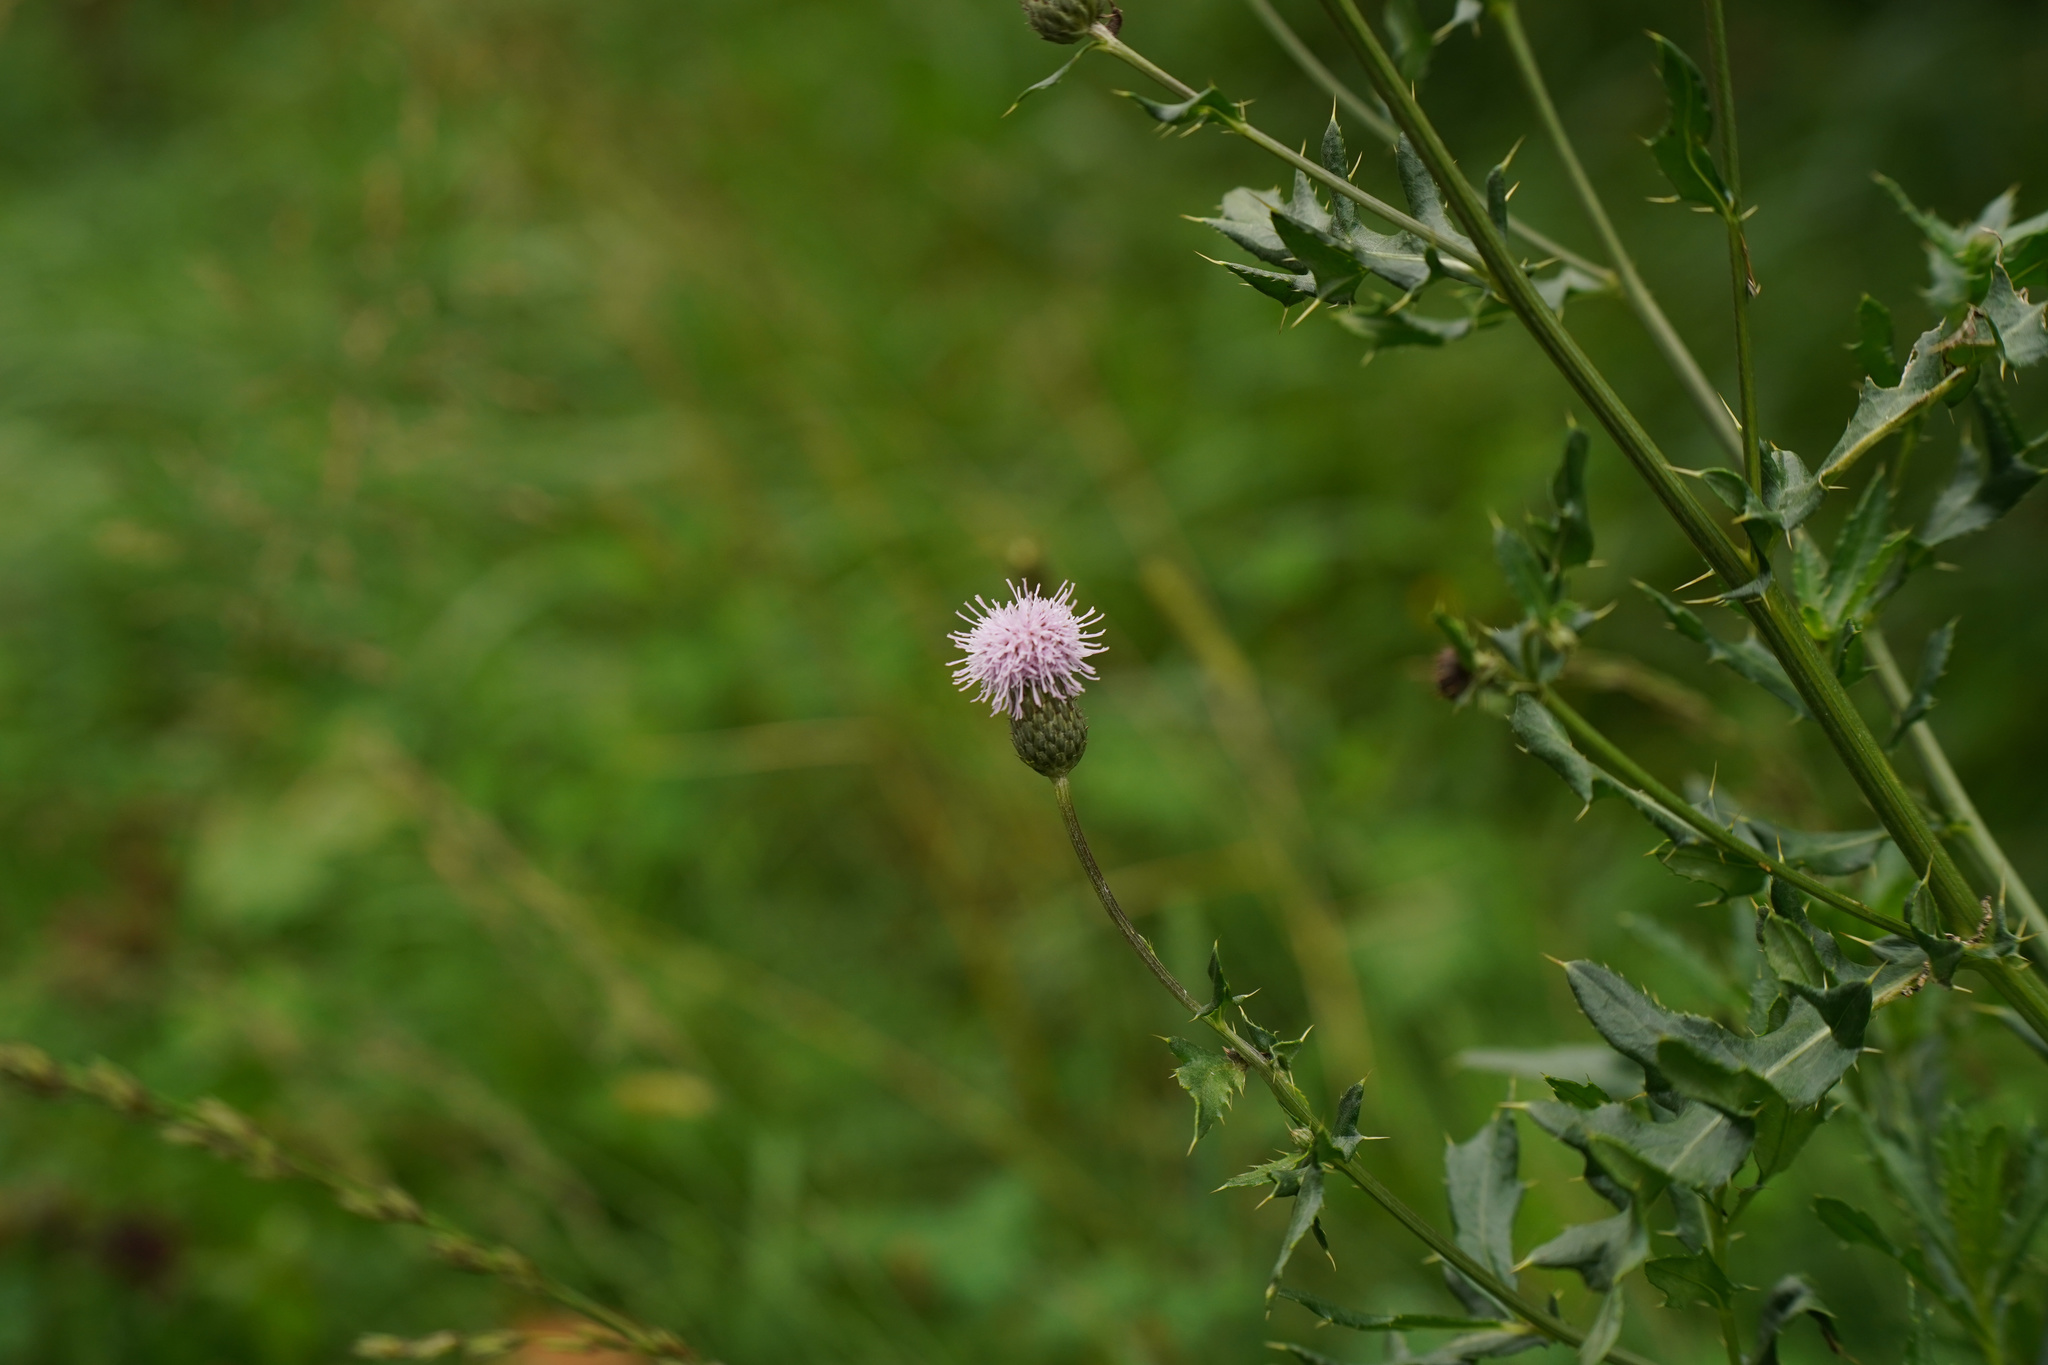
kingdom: Plantae
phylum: Tracheophyta
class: Magnoliopsida
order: Asterales
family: Asteraceae
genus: Cirsium
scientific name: Cirsium arvense
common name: Creeping thistle
